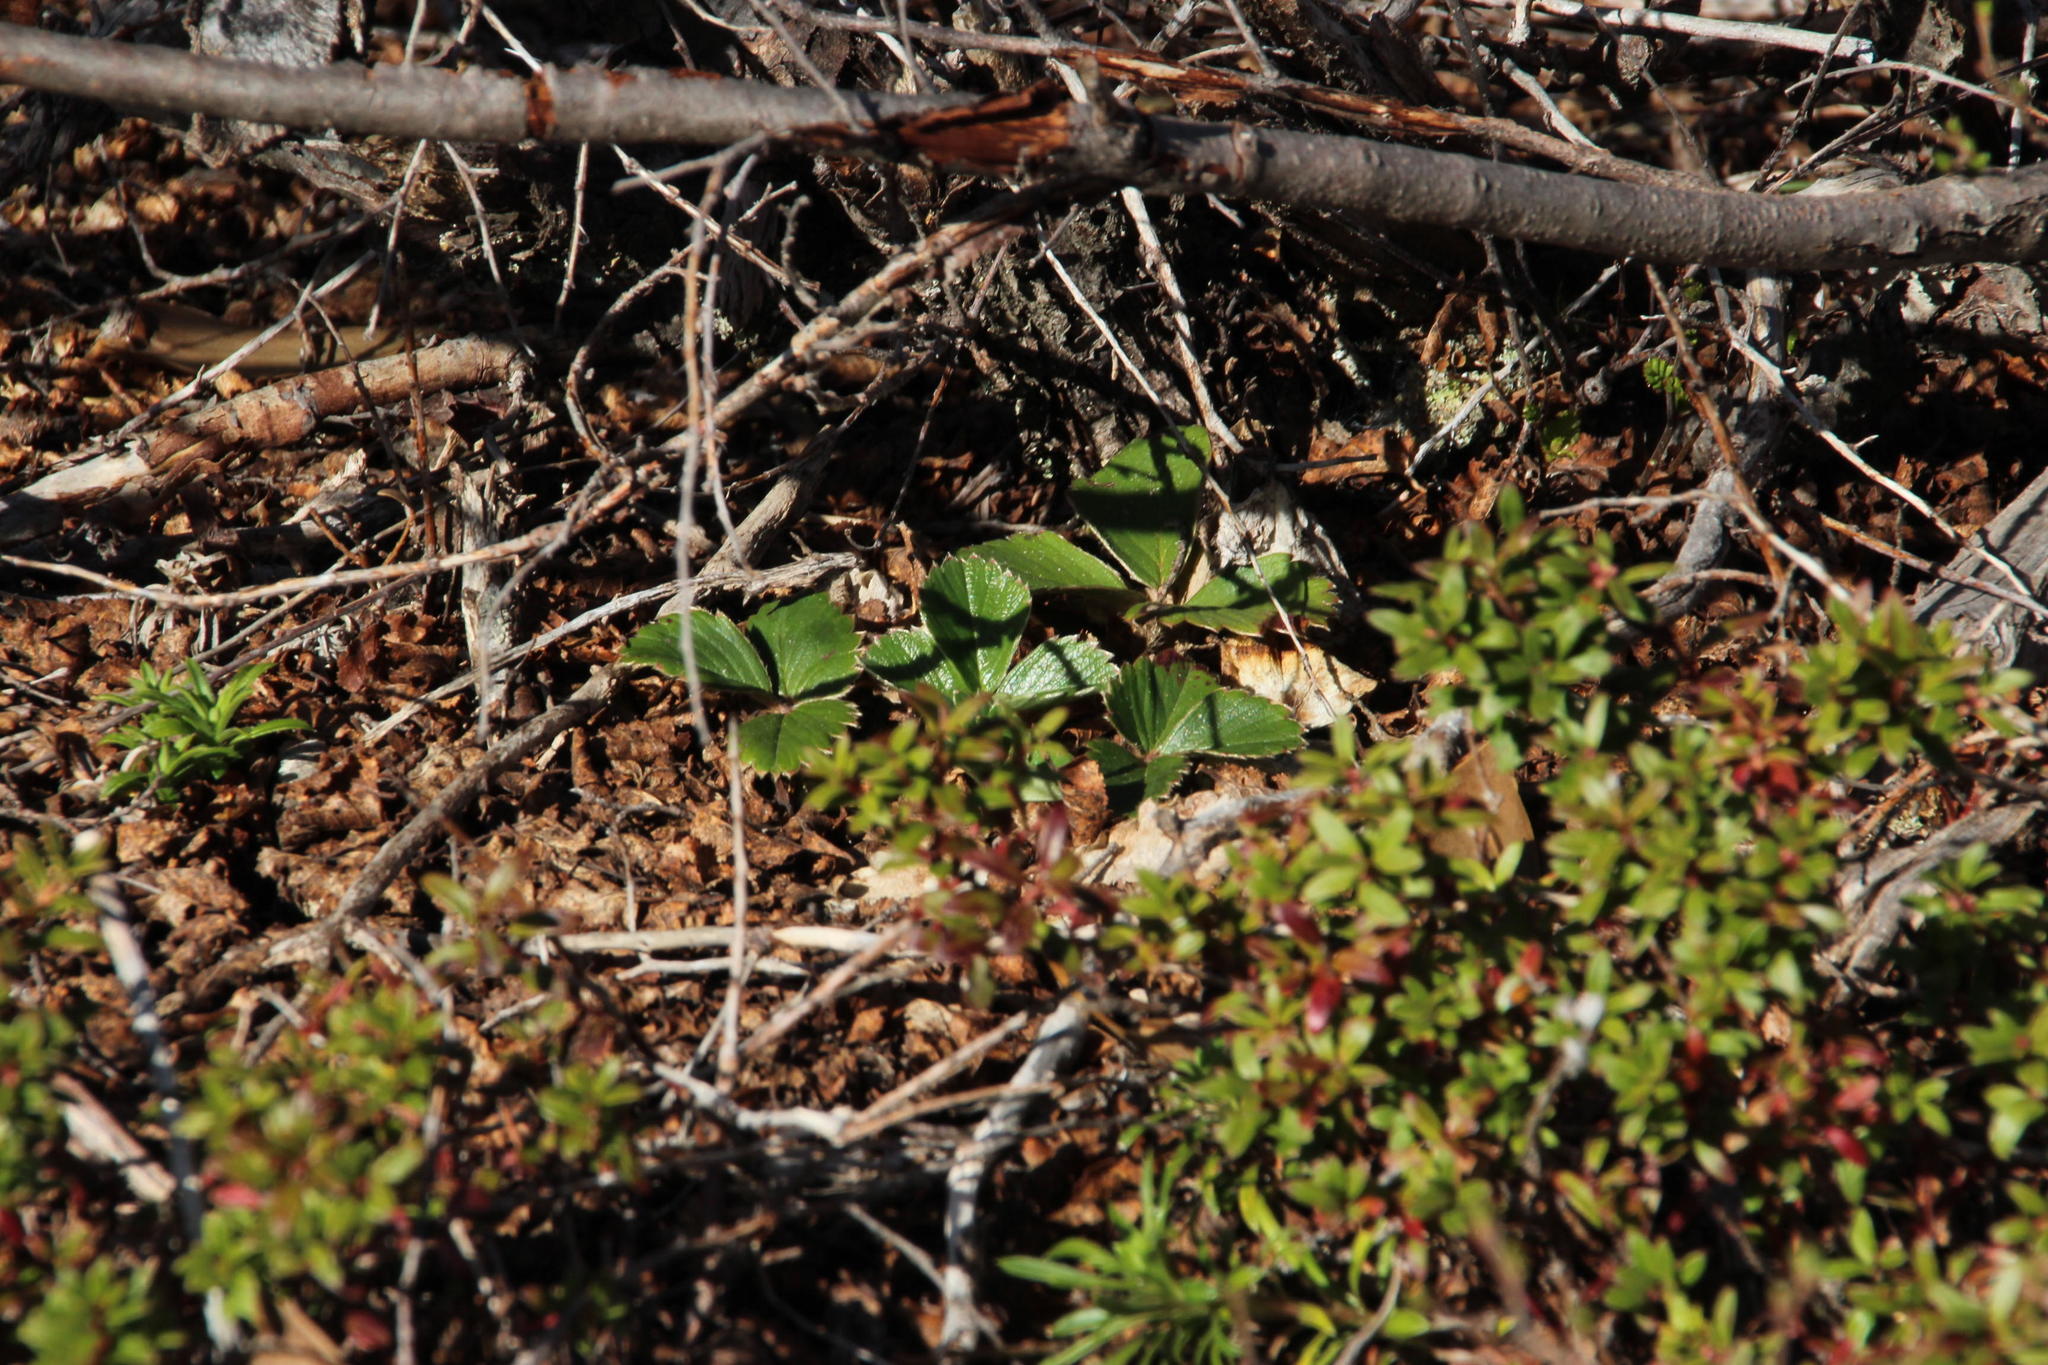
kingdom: Plantae
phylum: Tracheophyta
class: Magnoliopsida
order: Rosales
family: Rosaceae
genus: Fragaria
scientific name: Fragaria chiloensis
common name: Beach strawberry
